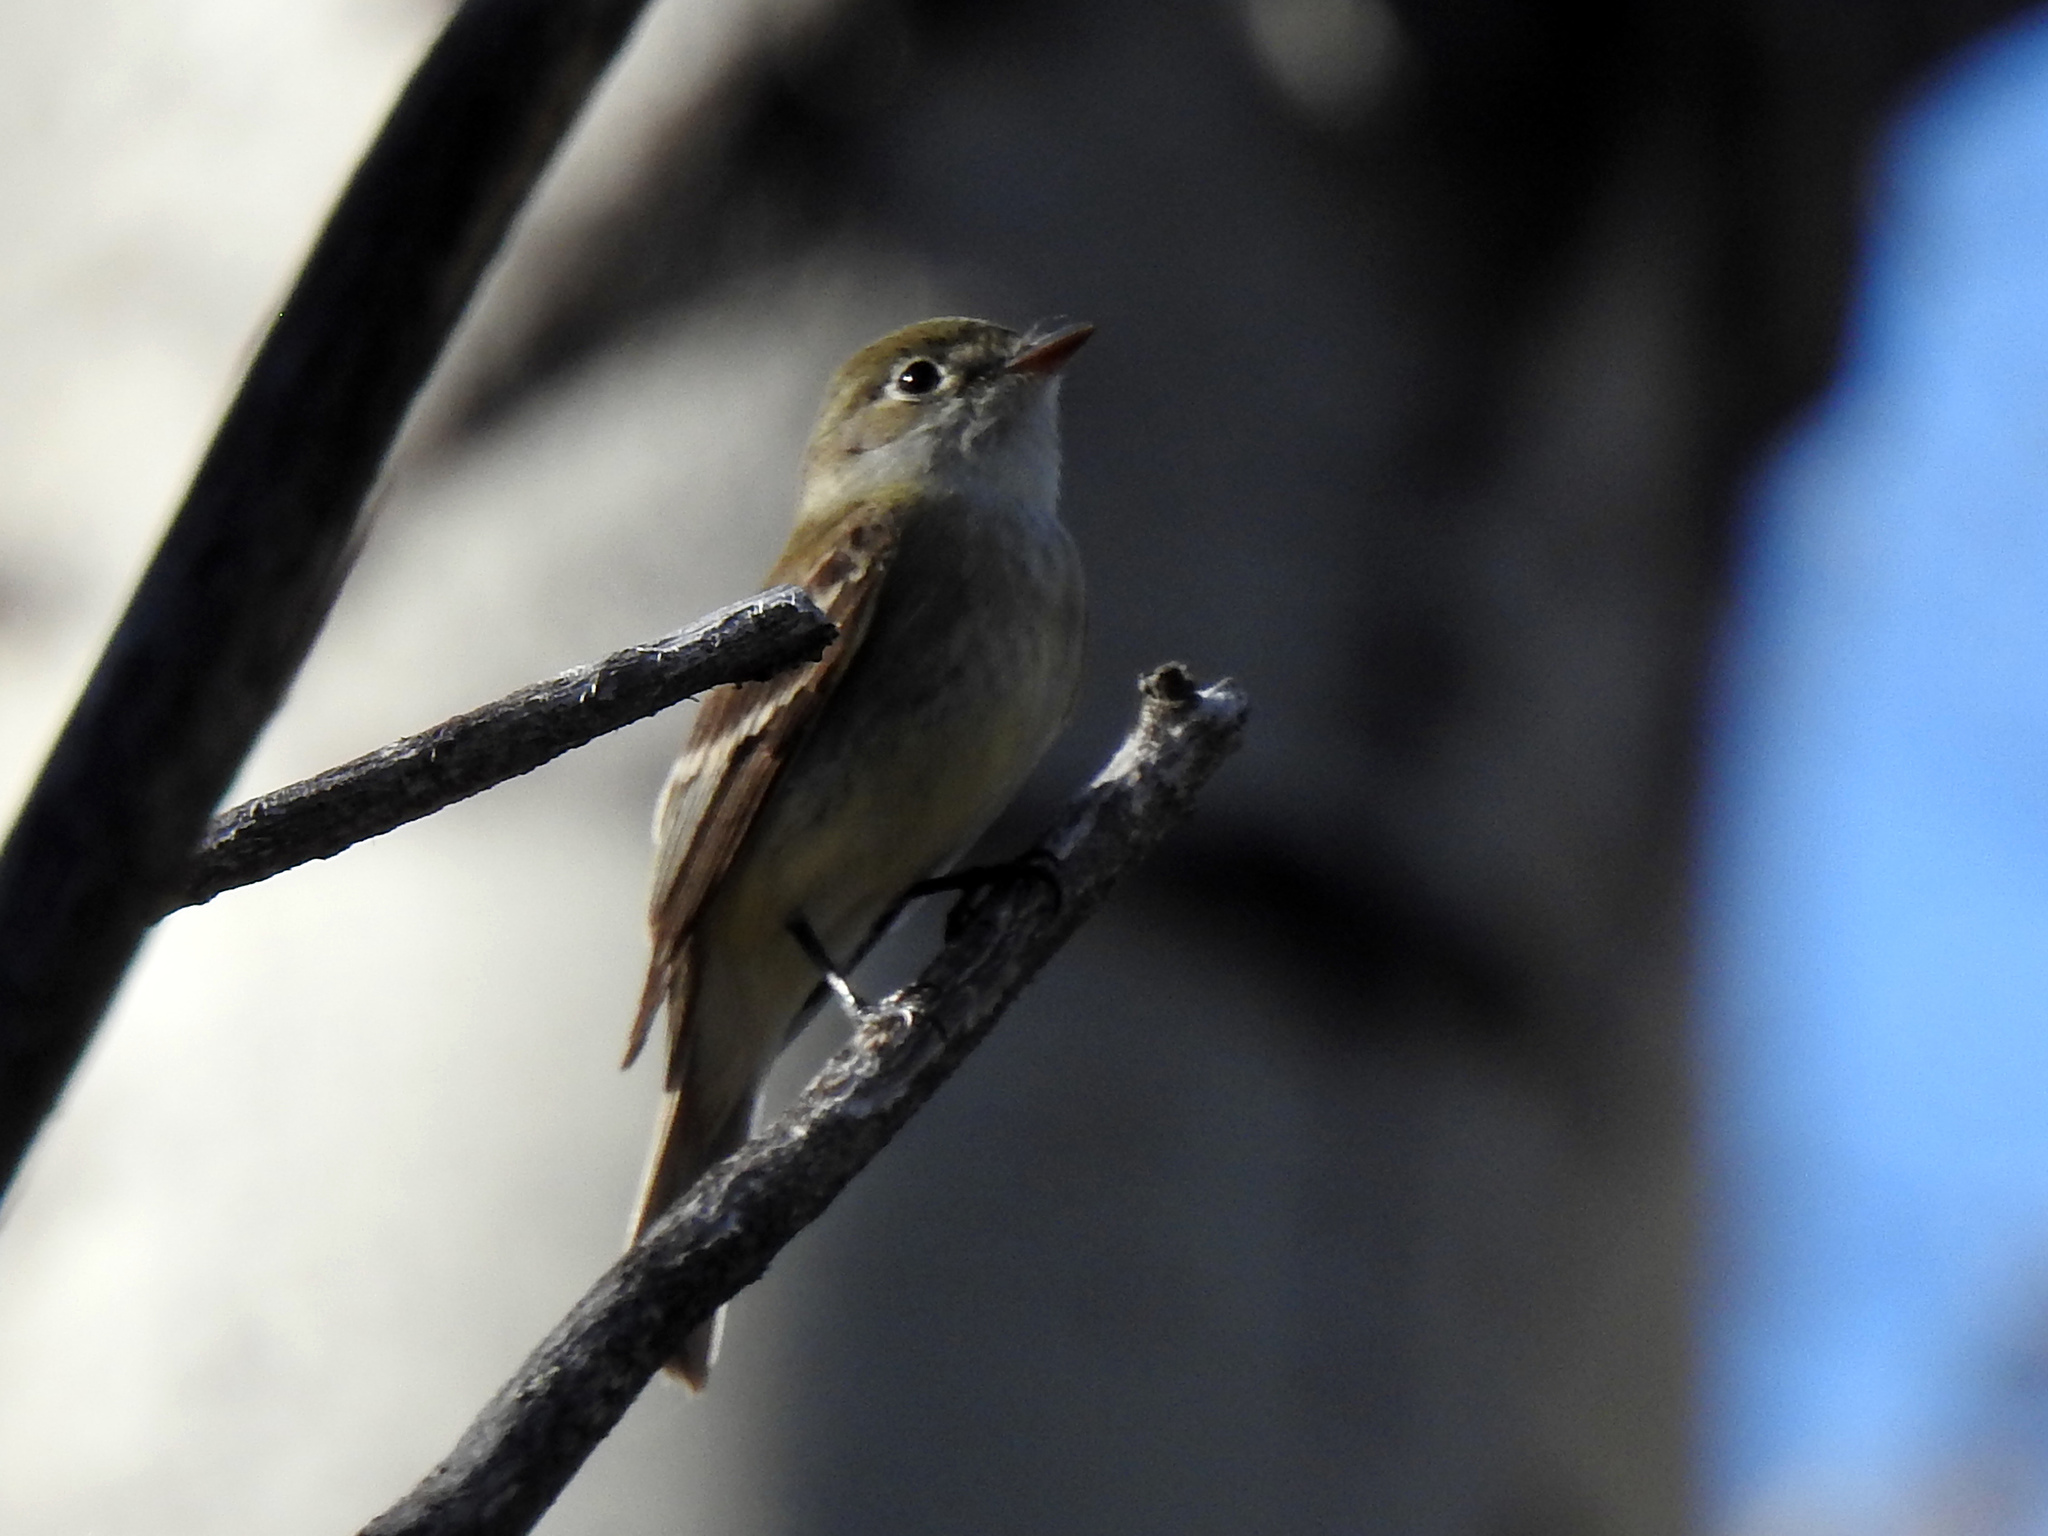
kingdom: Animalia
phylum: Chordata
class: Aves
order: Passeriformes
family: Tyrannidae
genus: Empidonax
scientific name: Empidonax minimus
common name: Least flycatcher
